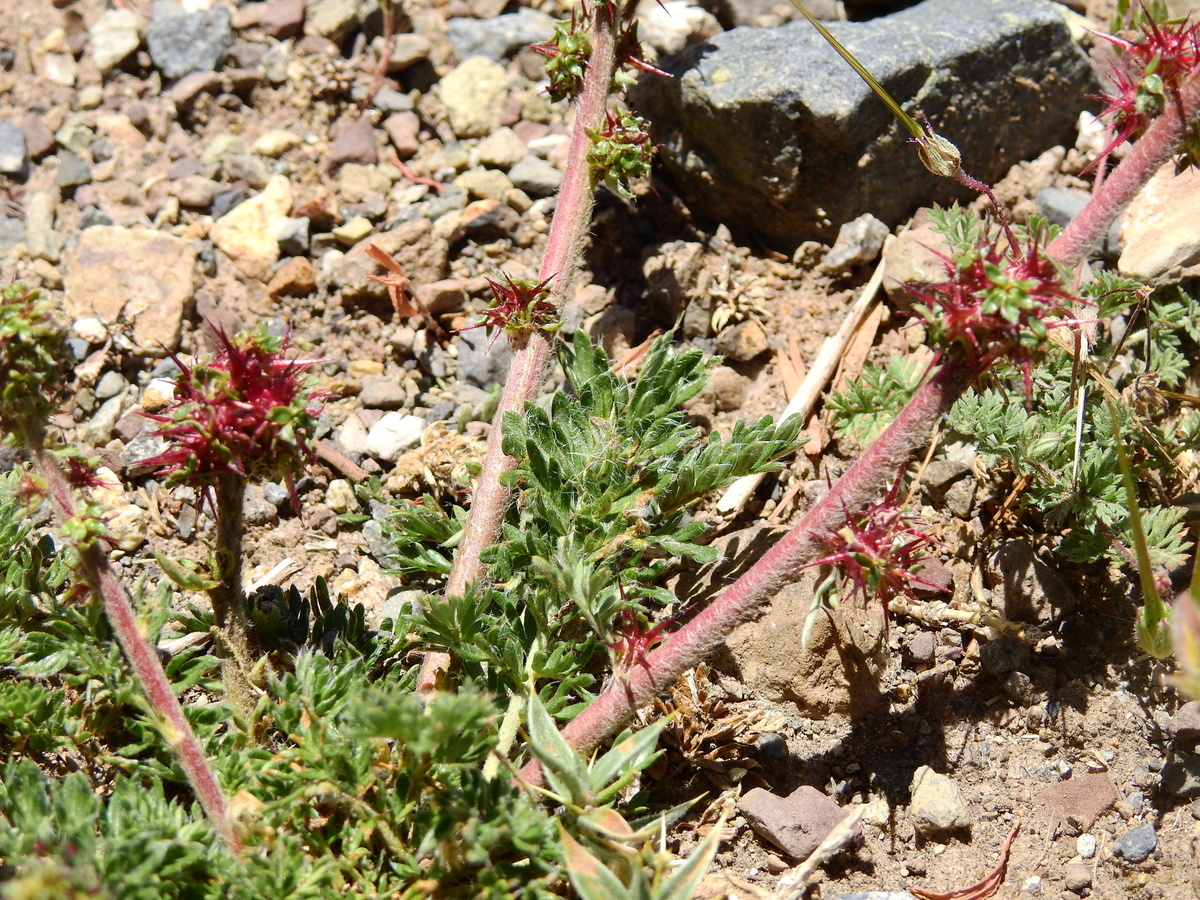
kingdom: Plantae
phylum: Tracheophyta
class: Magnoliopsida
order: Rosales
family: Rosaceae
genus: Acaena
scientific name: Acaena pinnatifida
